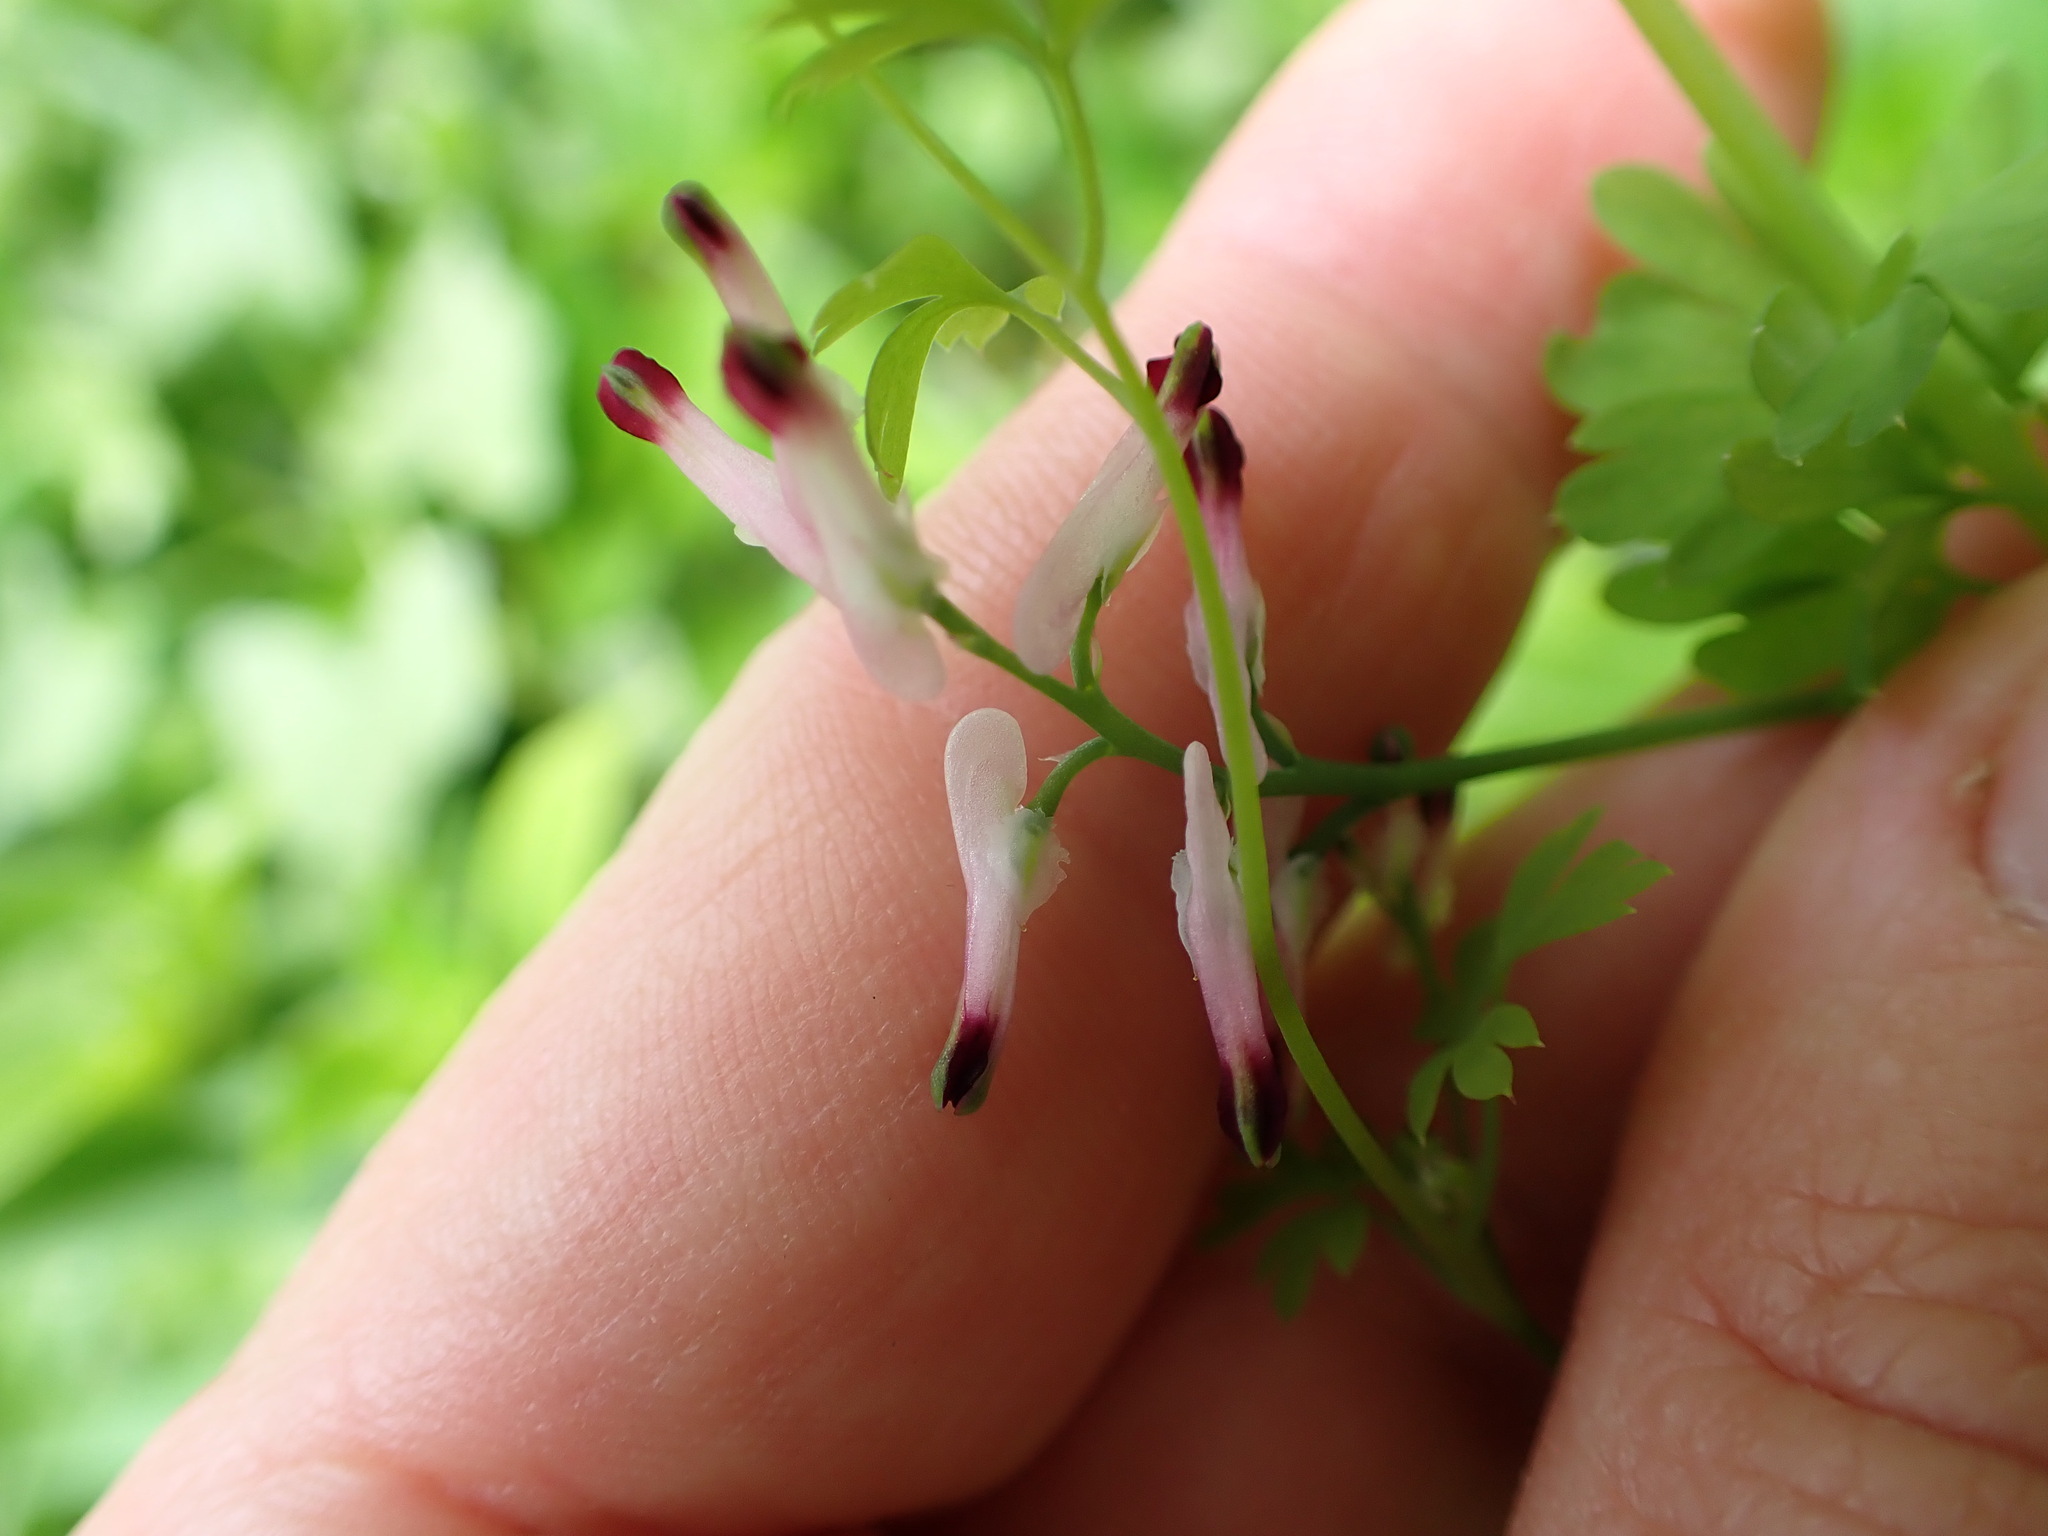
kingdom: Plantae
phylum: Tracheophyta
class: Magnoliopsida
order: Ranunculales
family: Papaveraceae
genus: Fumaria
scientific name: Fumaria muralis
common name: Common ramping-fumitory
